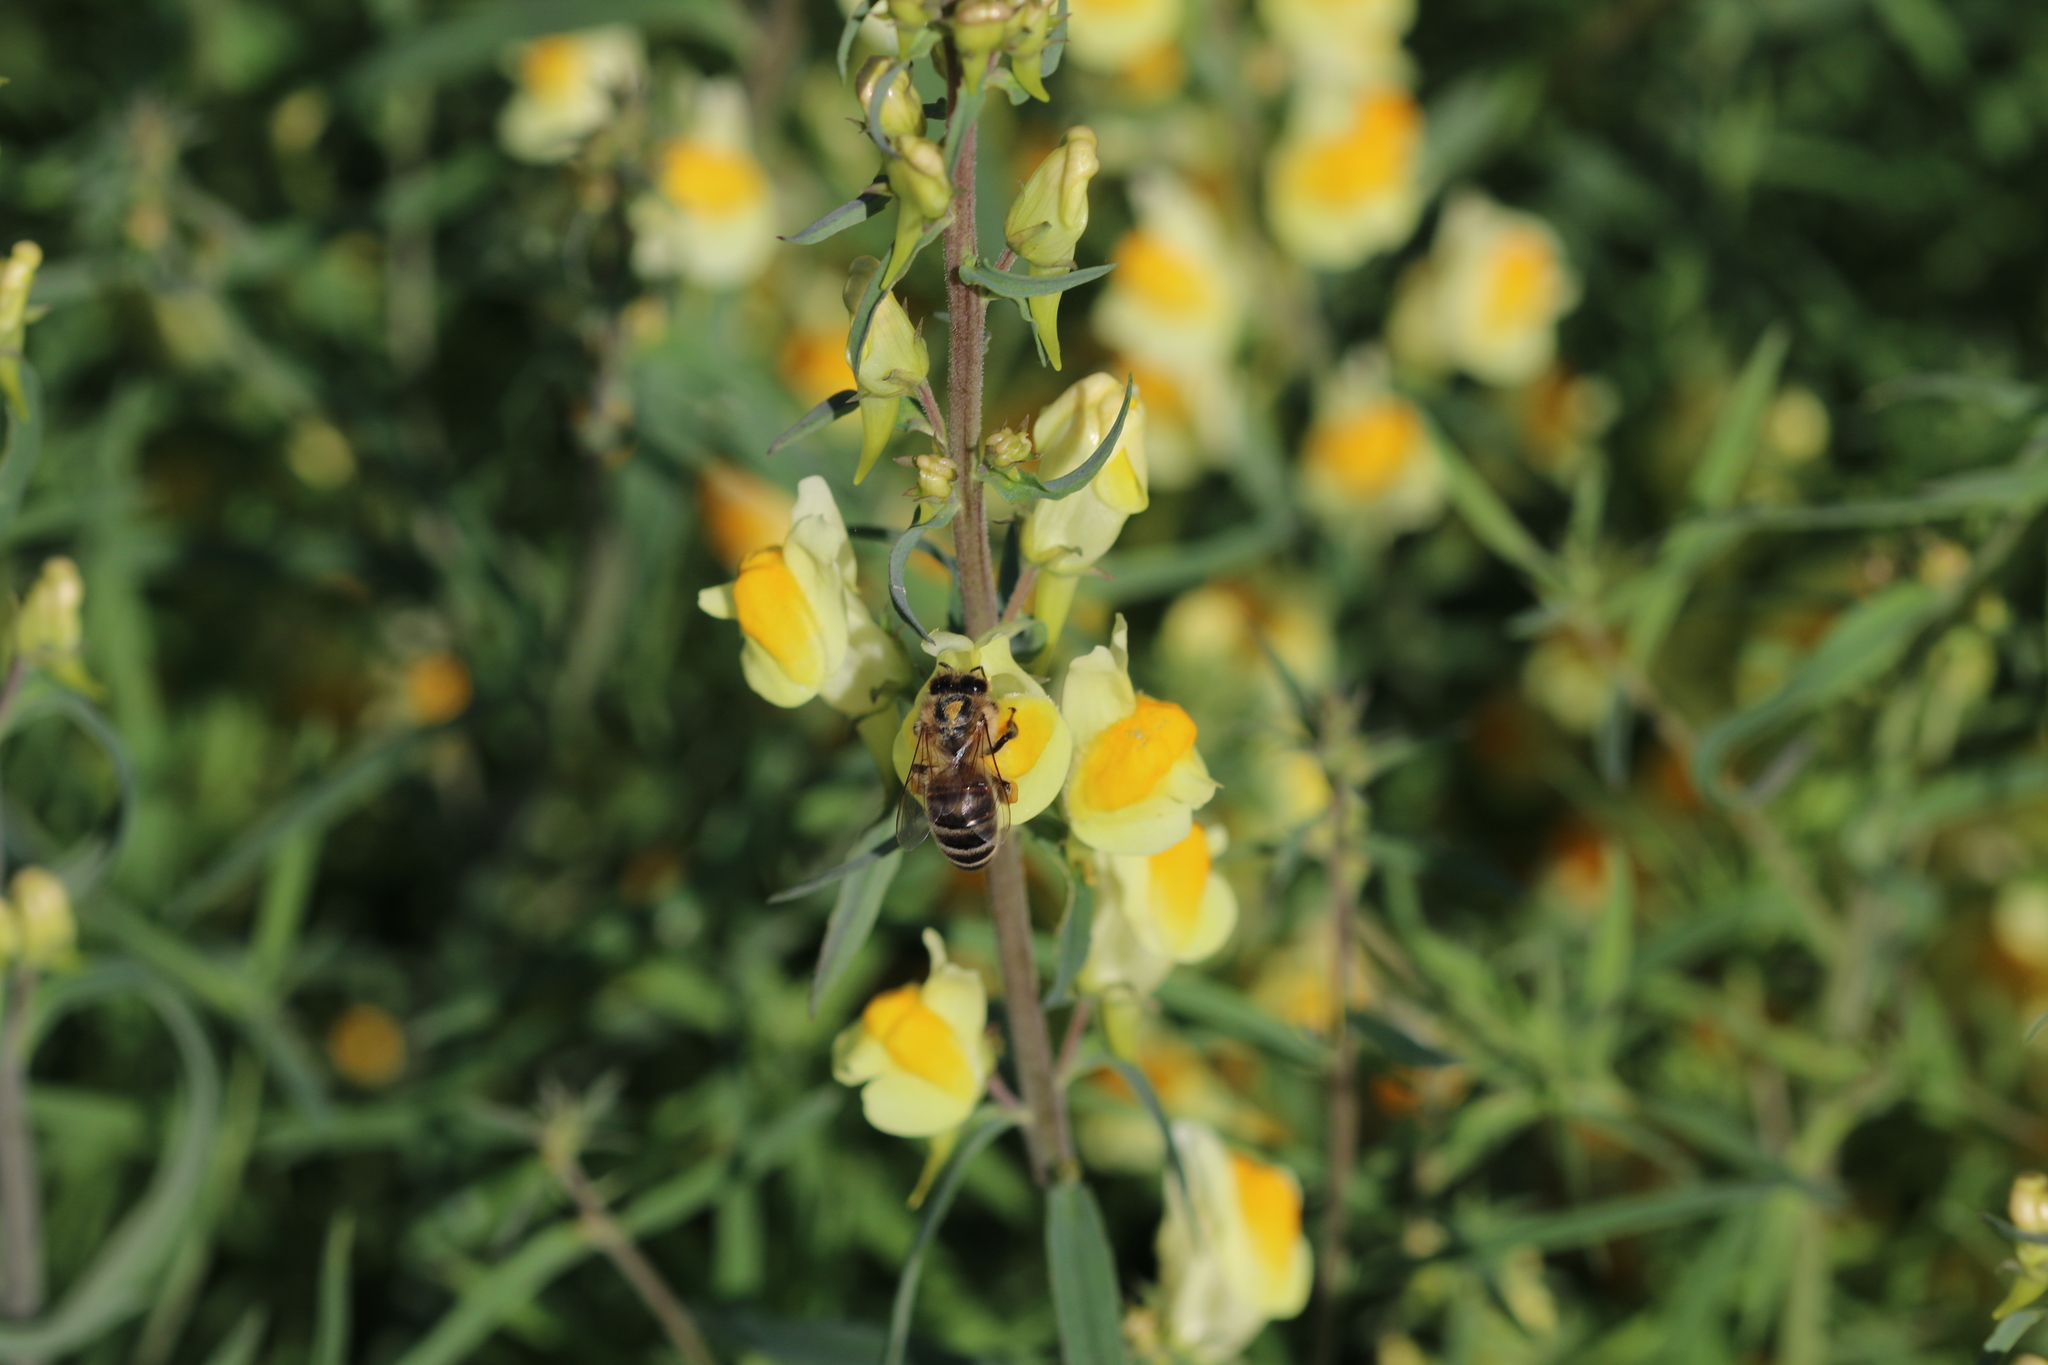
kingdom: Animalia
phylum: Arthropoda
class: Insecta
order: Hymenoptera
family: Apidae
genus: Apis
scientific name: Apis mellifera
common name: Honey bee
